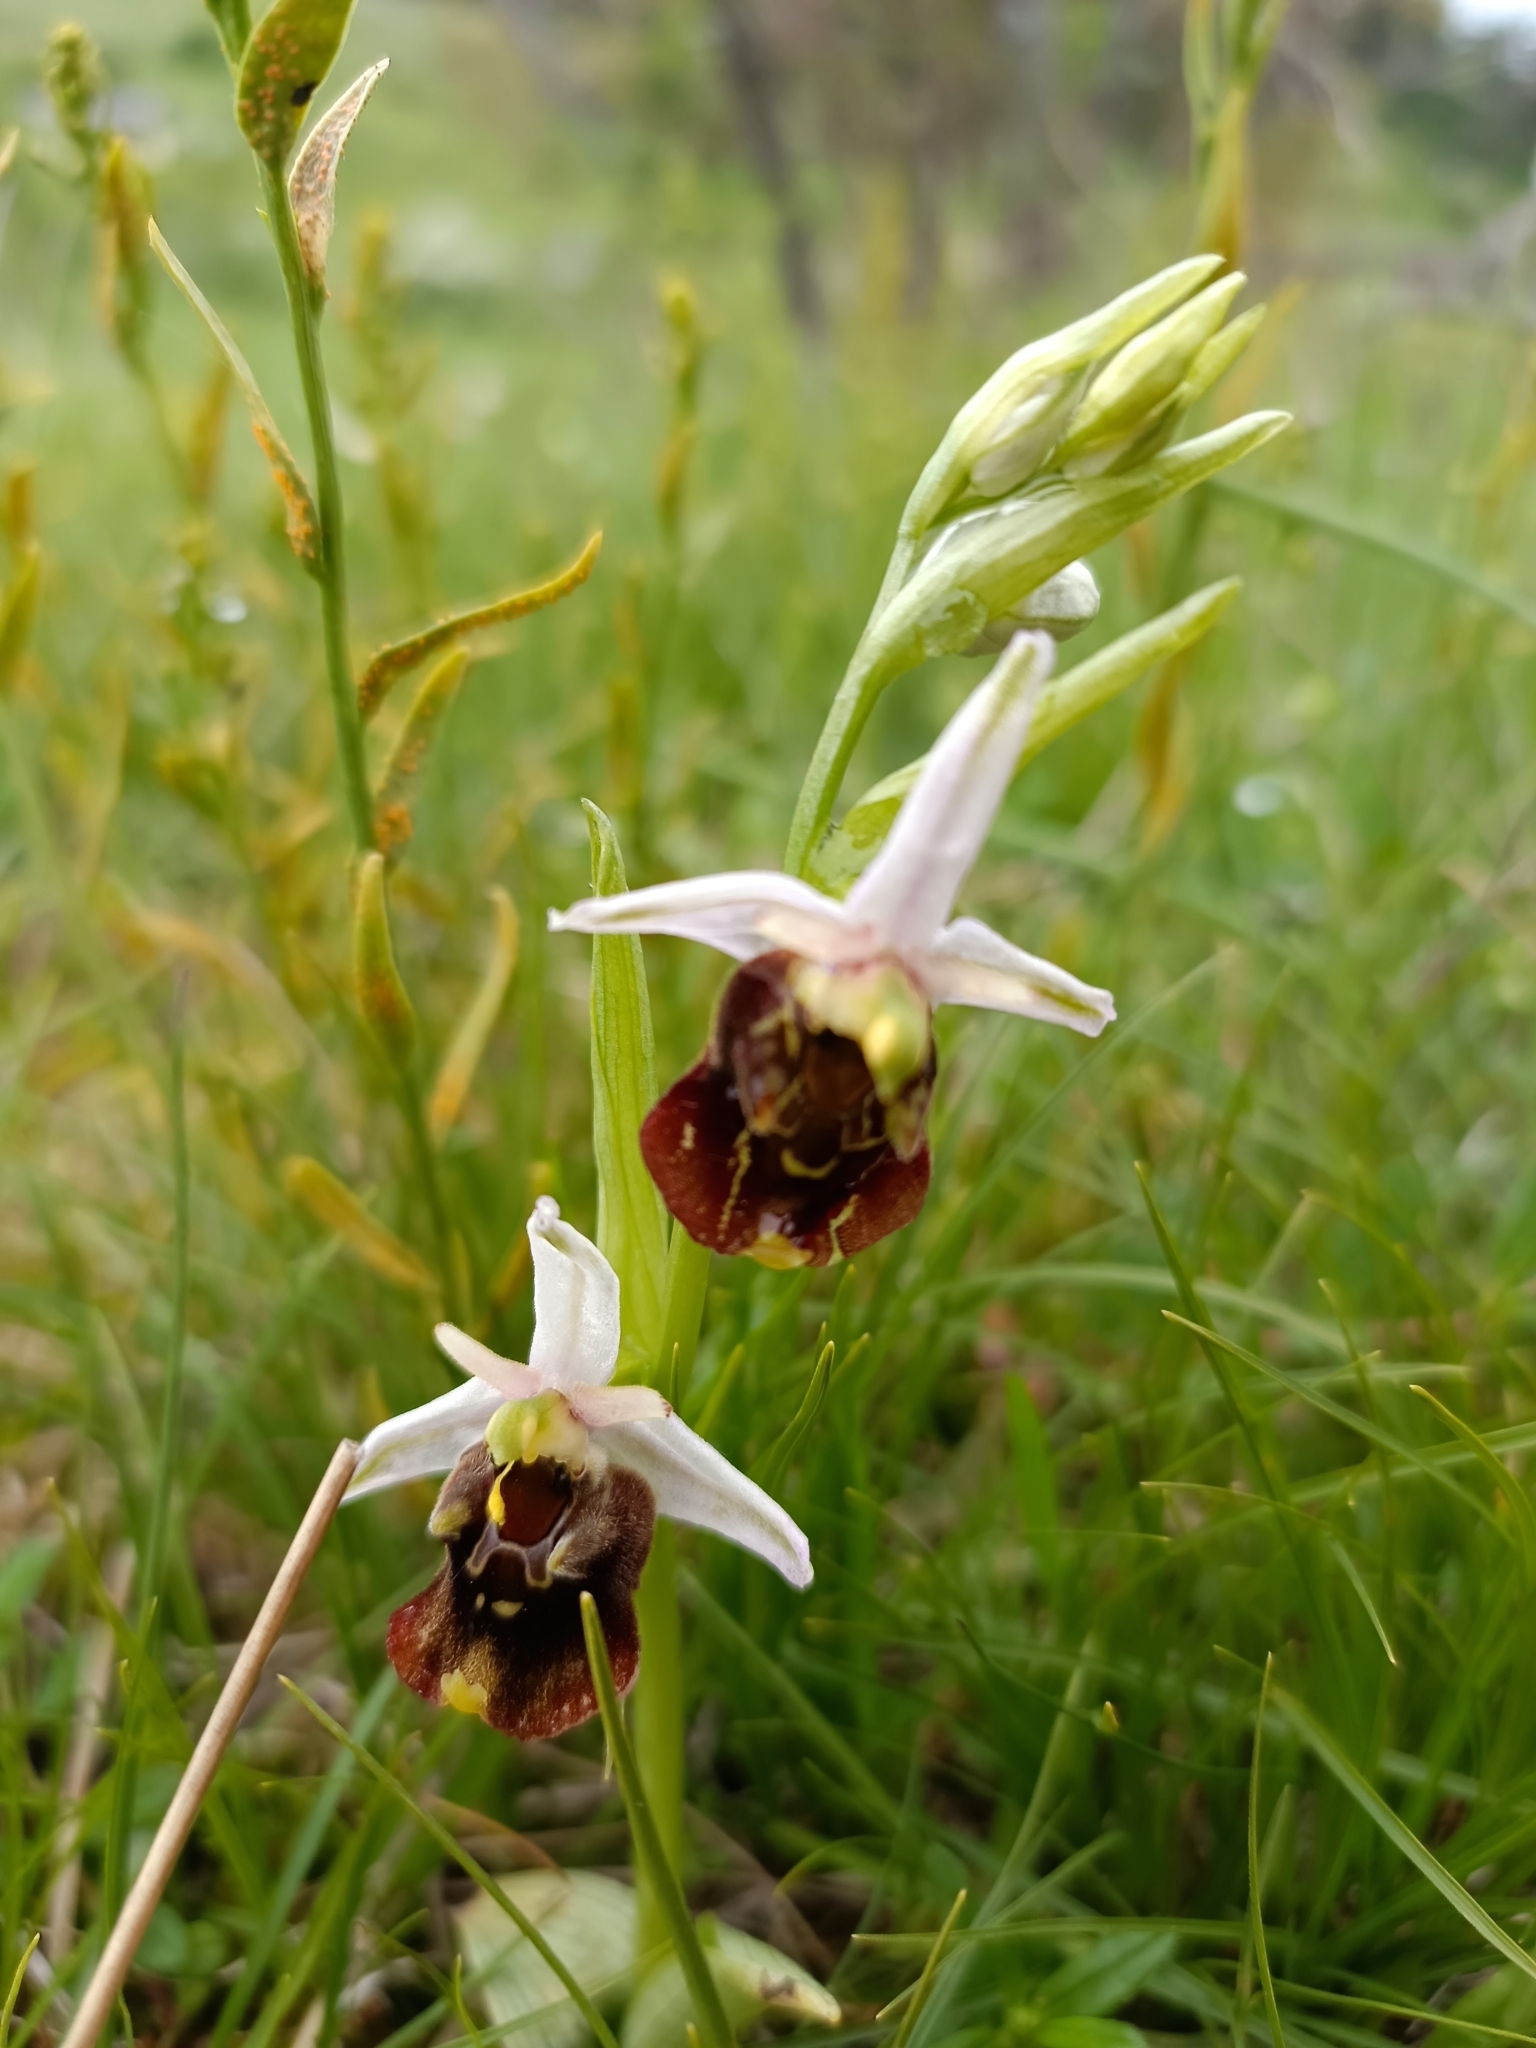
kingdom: Plantae
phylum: Tracheophyta
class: Liliopsida
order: Asparagales
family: Orchidaceae
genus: Ophrys
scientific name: Ophrys holosericea
